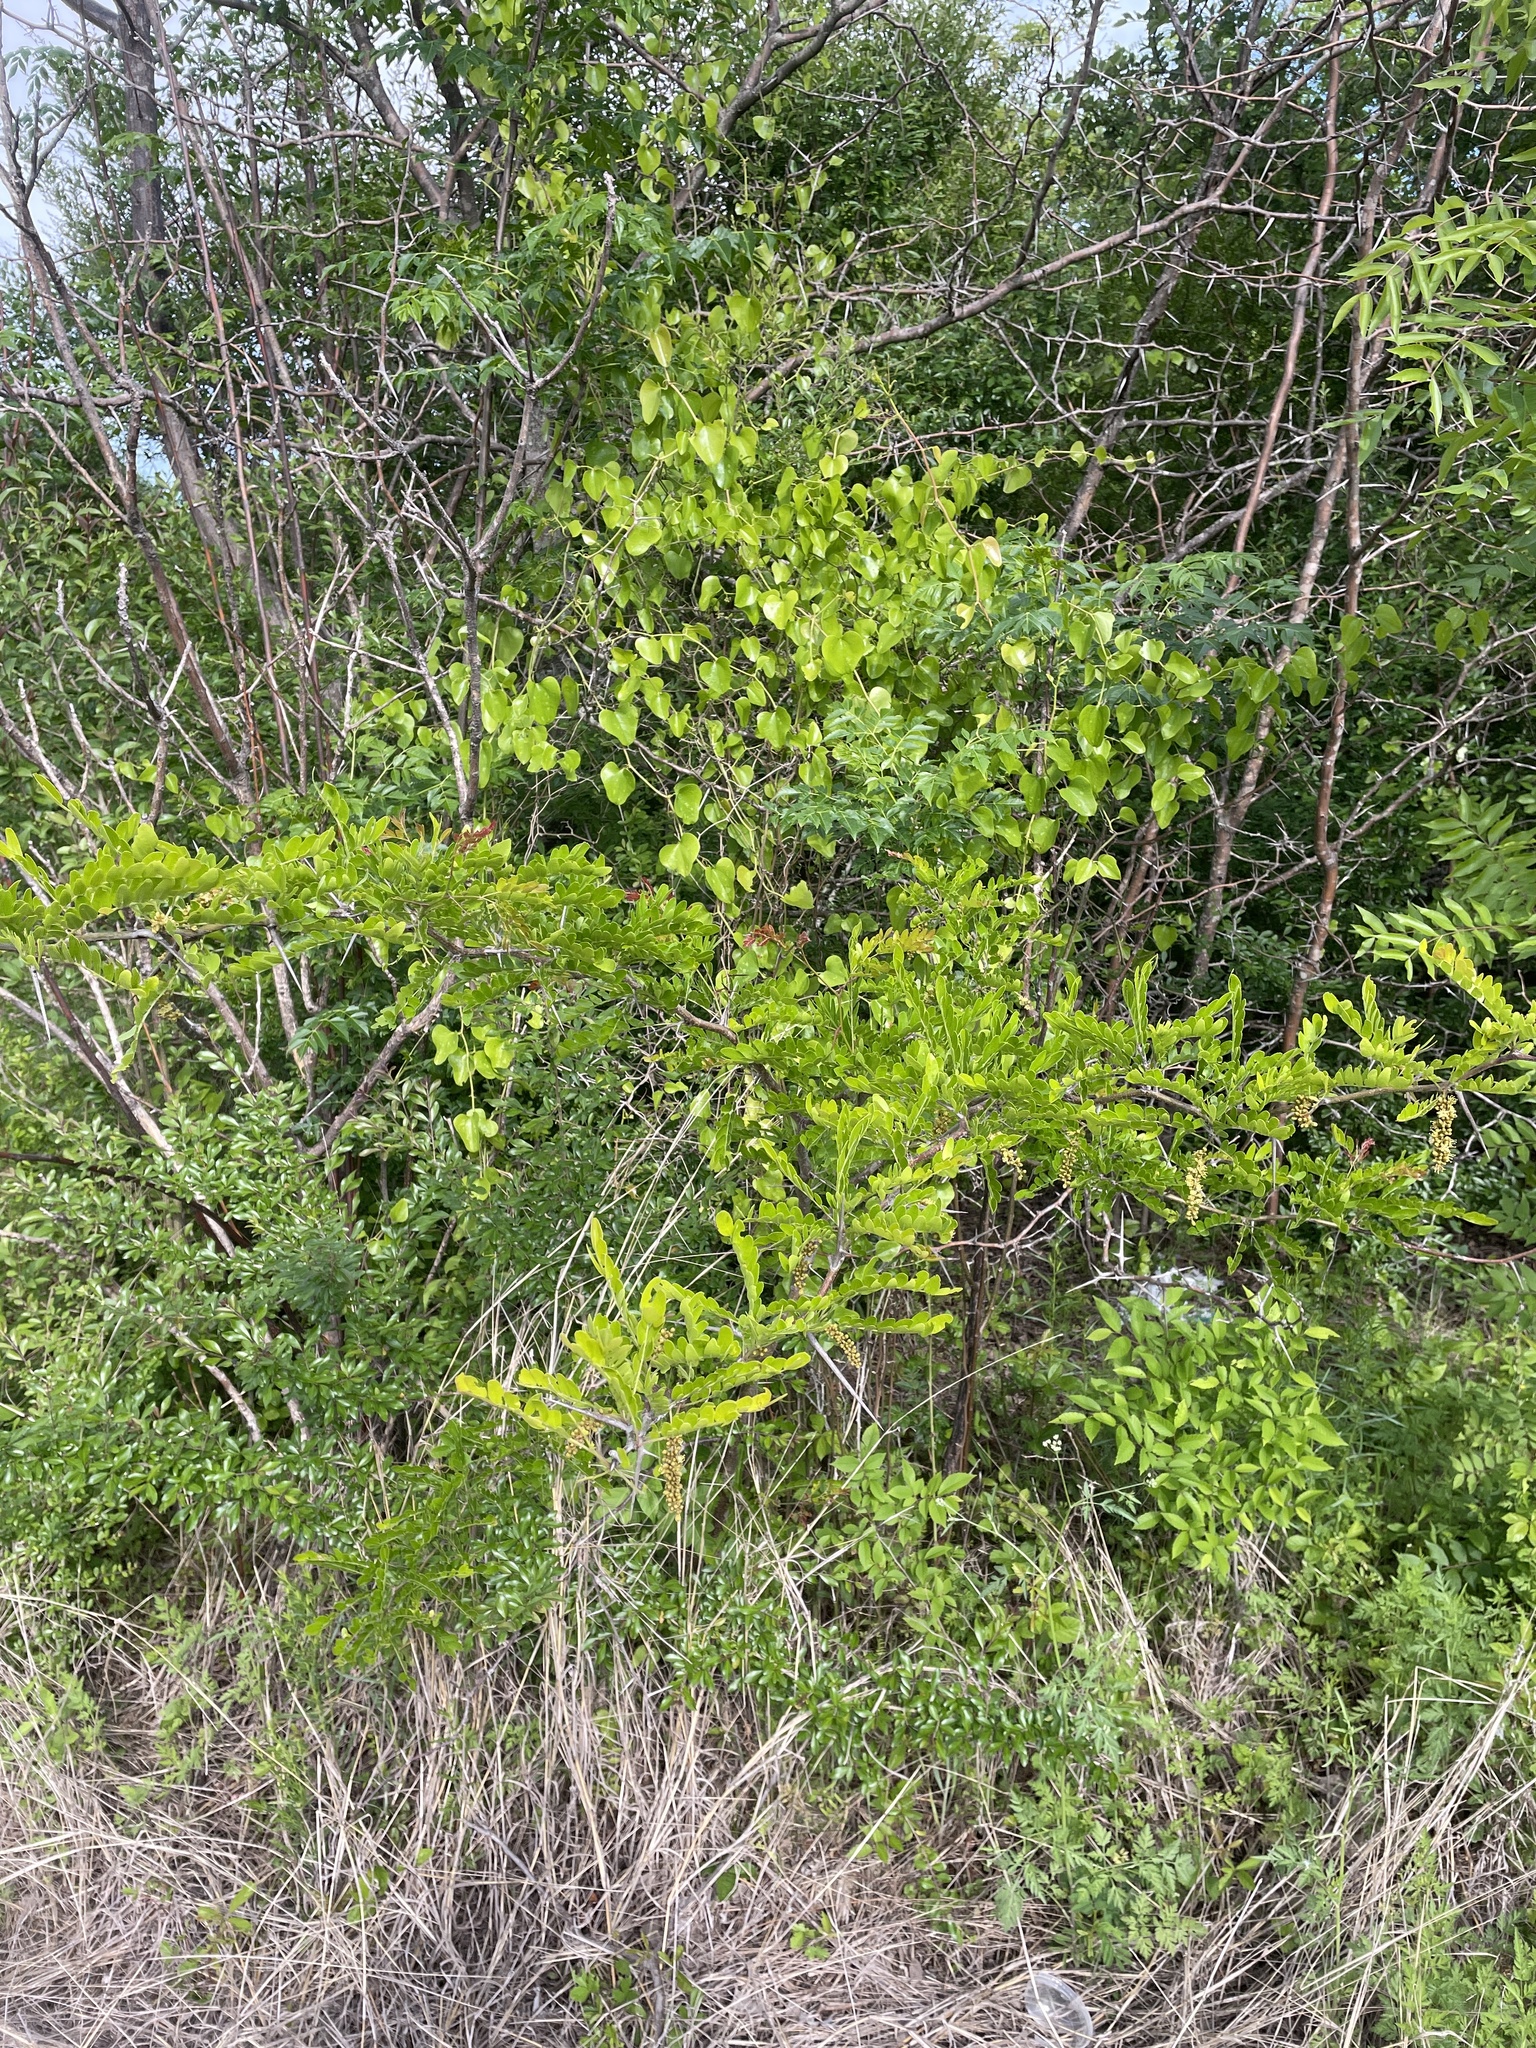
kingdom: Plantae
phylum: Tracheophyta
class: Magnoliopsida
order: Fabales
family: Fabaceae
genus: Gleditsia
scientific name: Gleditsia triacanthos
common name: Common honeylocust
